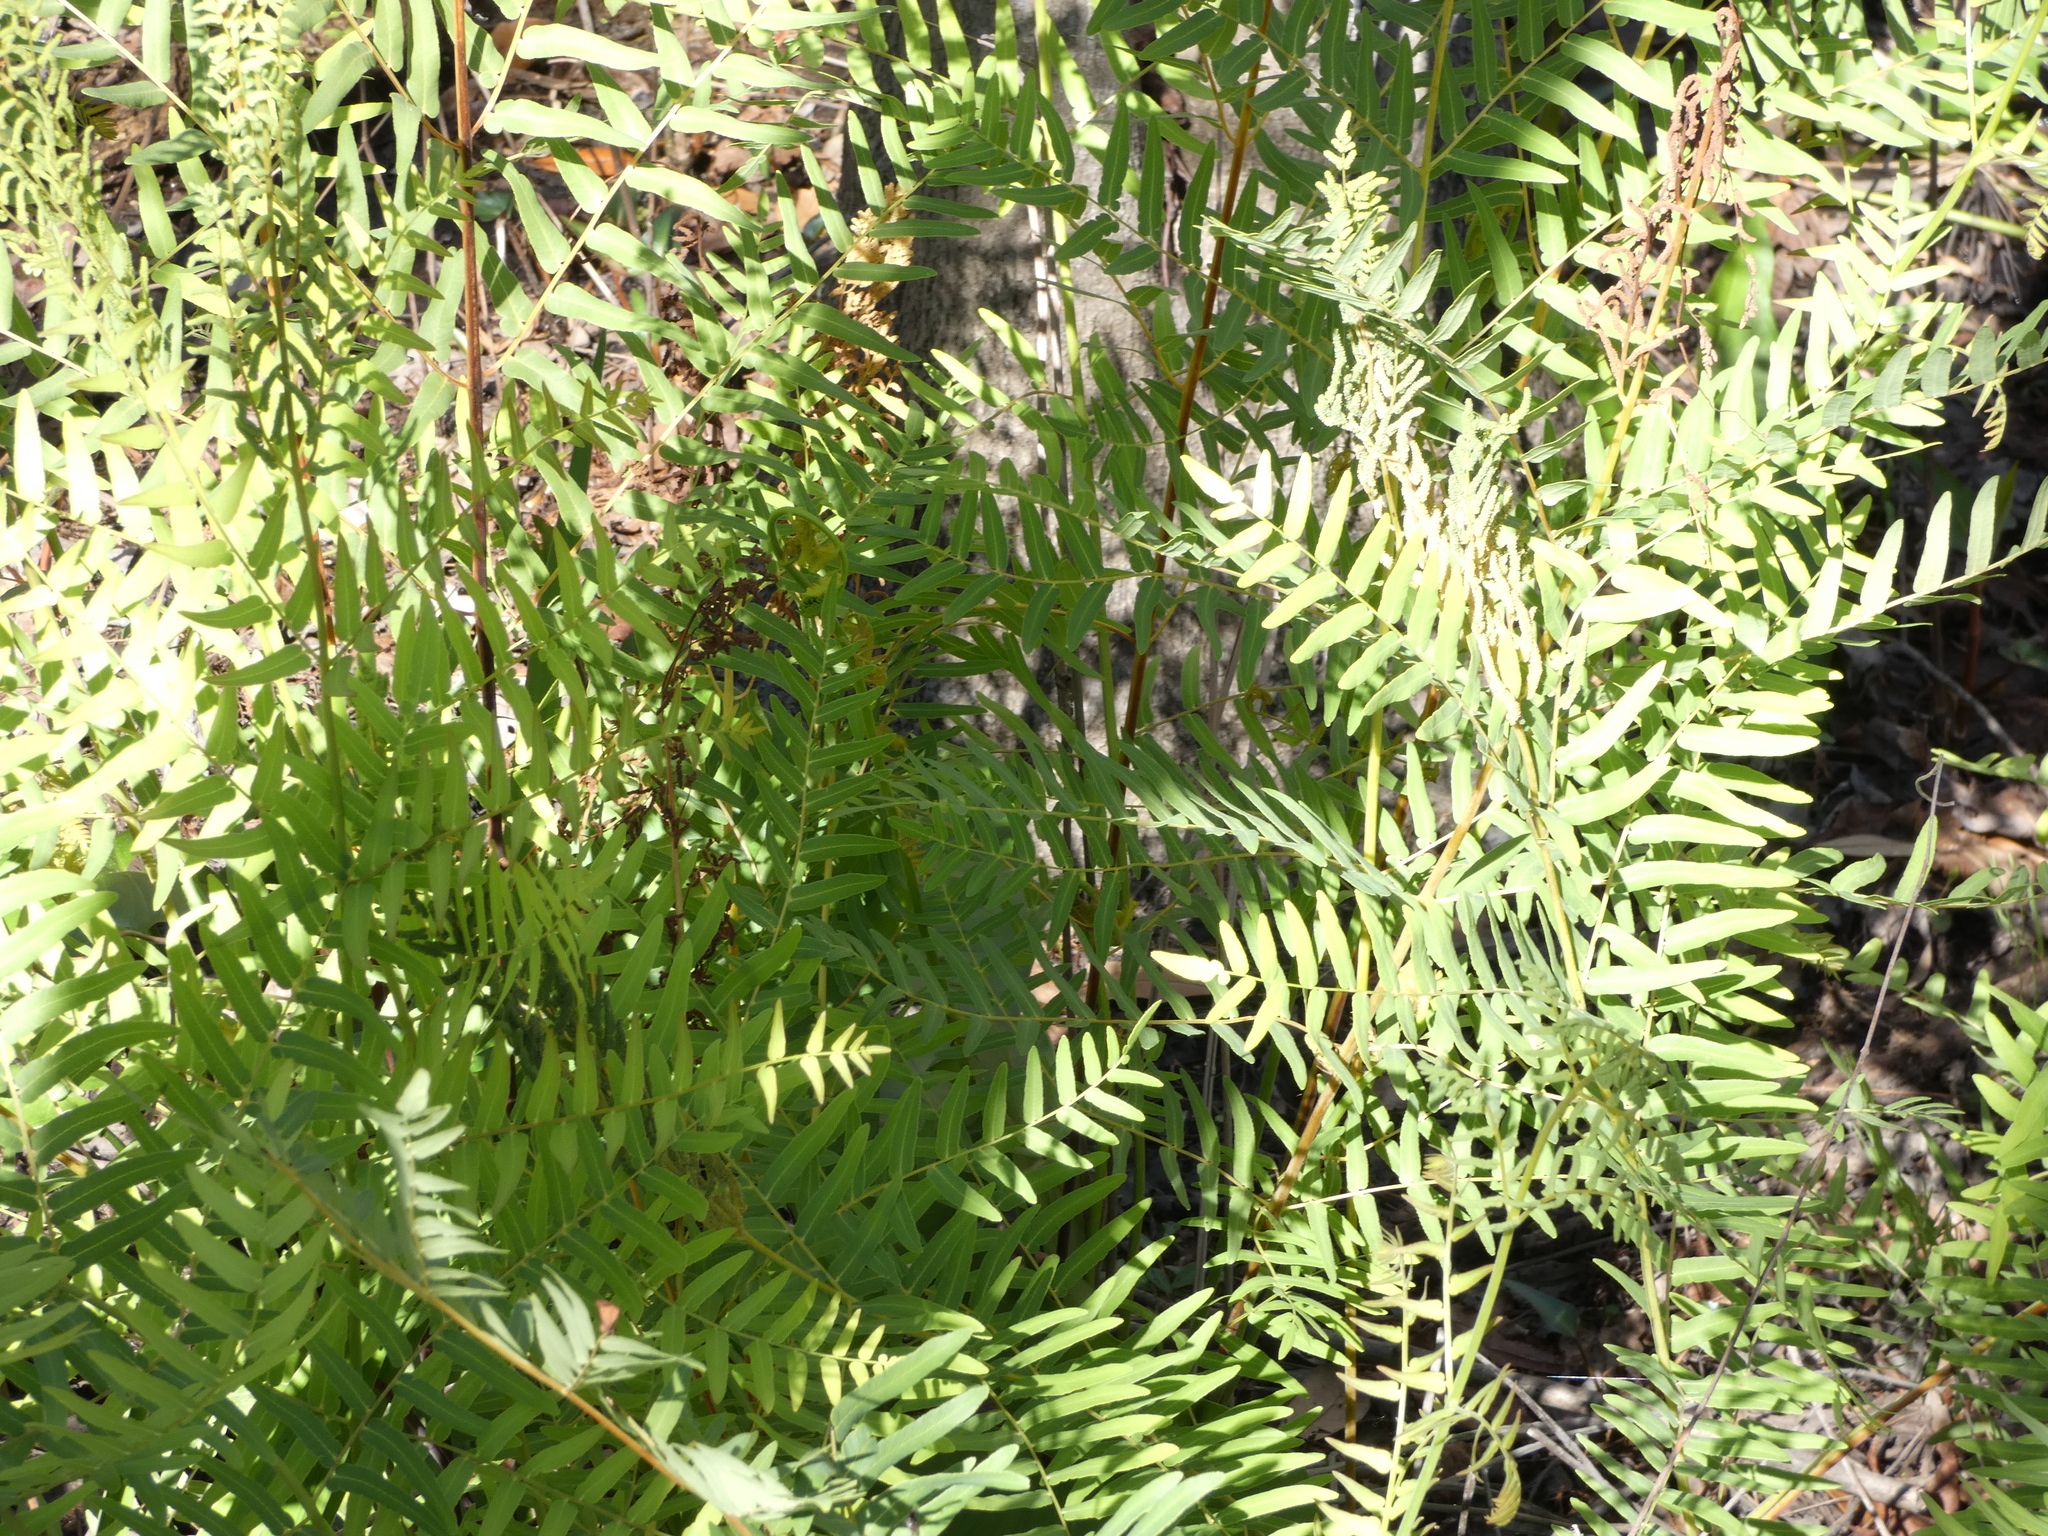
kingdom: Plantae
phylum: Tracheophyta
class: Polypodiopsida
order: Osmundales
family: Osmundaceae
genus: Osmunda
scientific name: Osmunda spectabilis
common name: American royal fern
